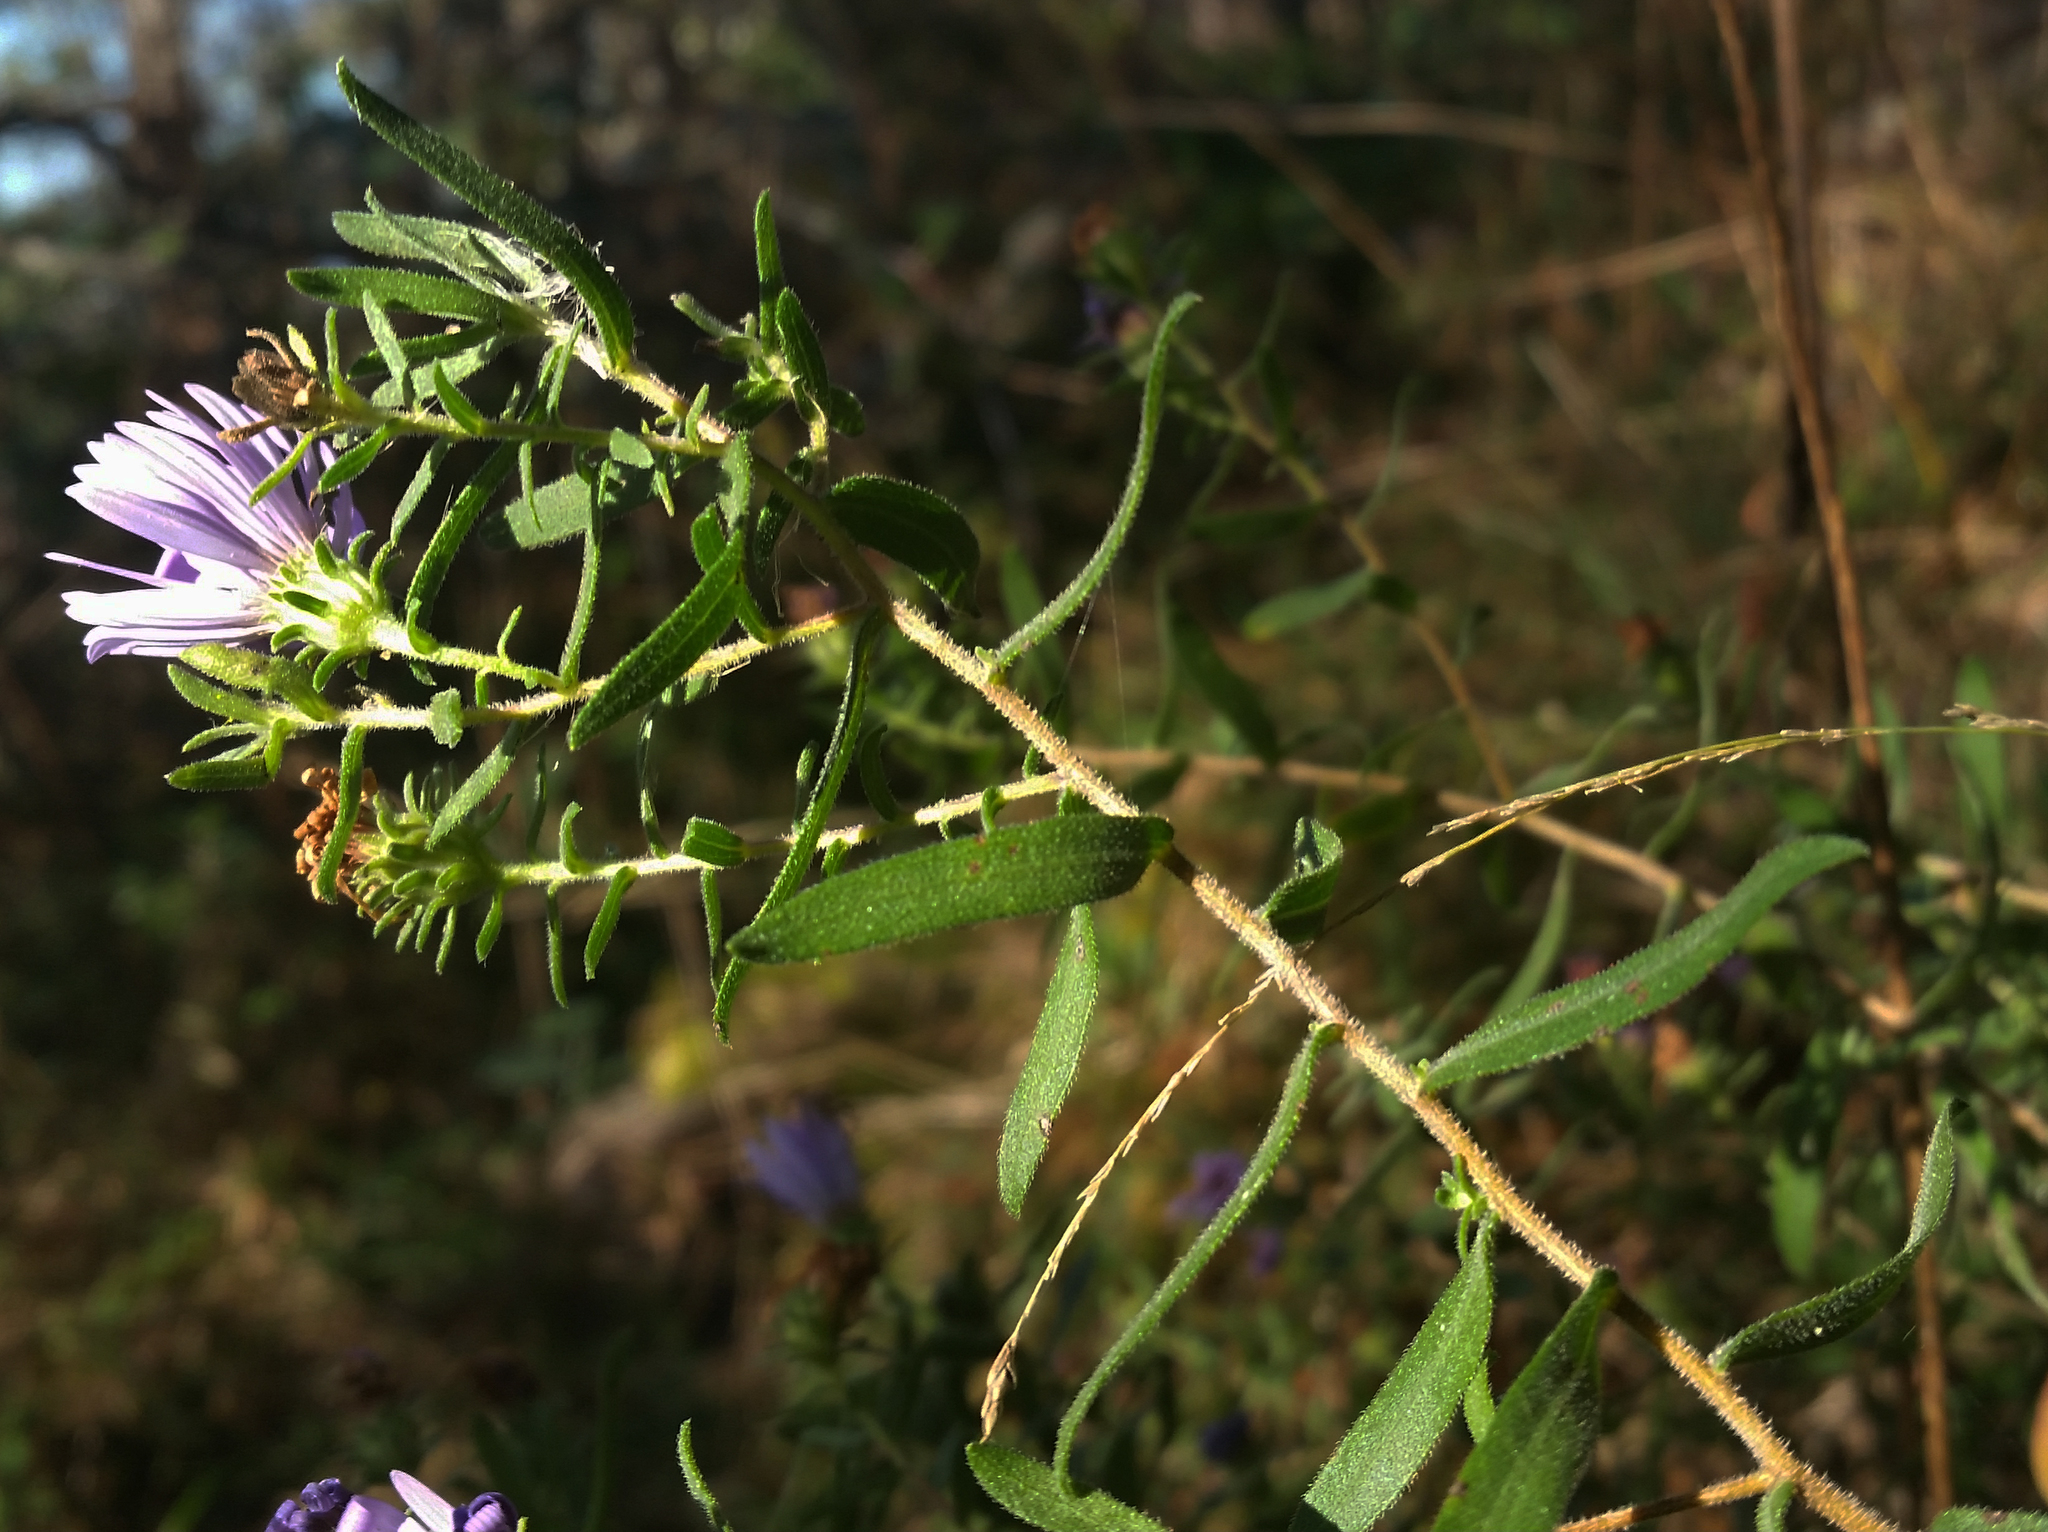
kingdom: Plantae
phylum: Tracheophyta
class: Magnoliopsida
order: Asterales
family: Asteraceae
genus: Symphyotrichum
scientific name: Symphyotrichum oblongifolium
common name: Aromatic aster
